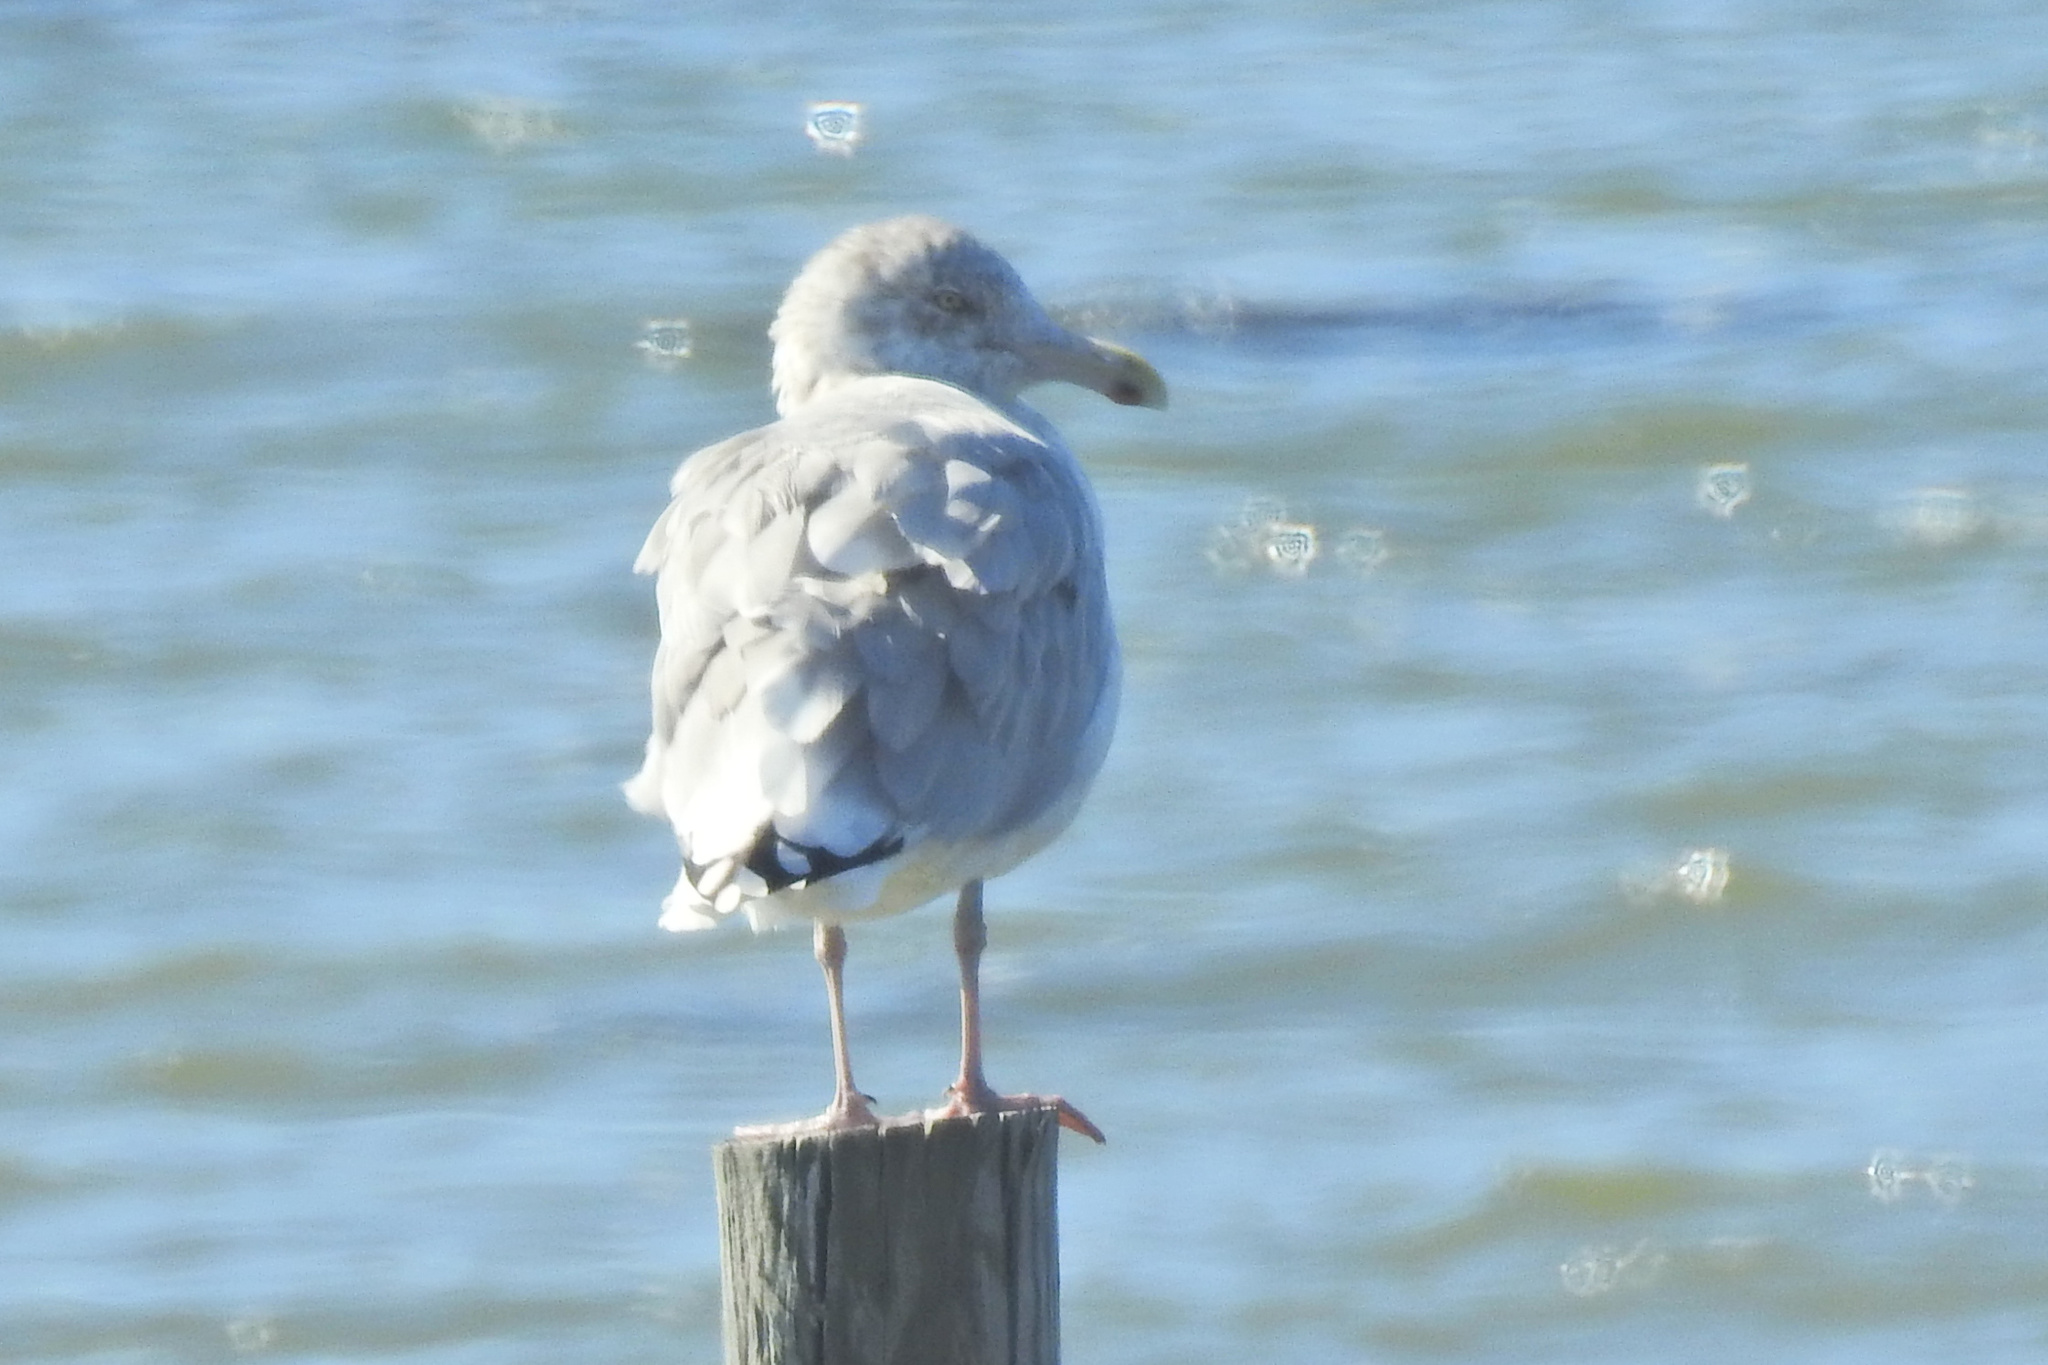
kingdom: Animalia
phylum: Chordata
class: Aves
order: Charadriiformes
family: Laridae
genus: Larus
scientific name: Larus argentatus
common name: Herring gull
